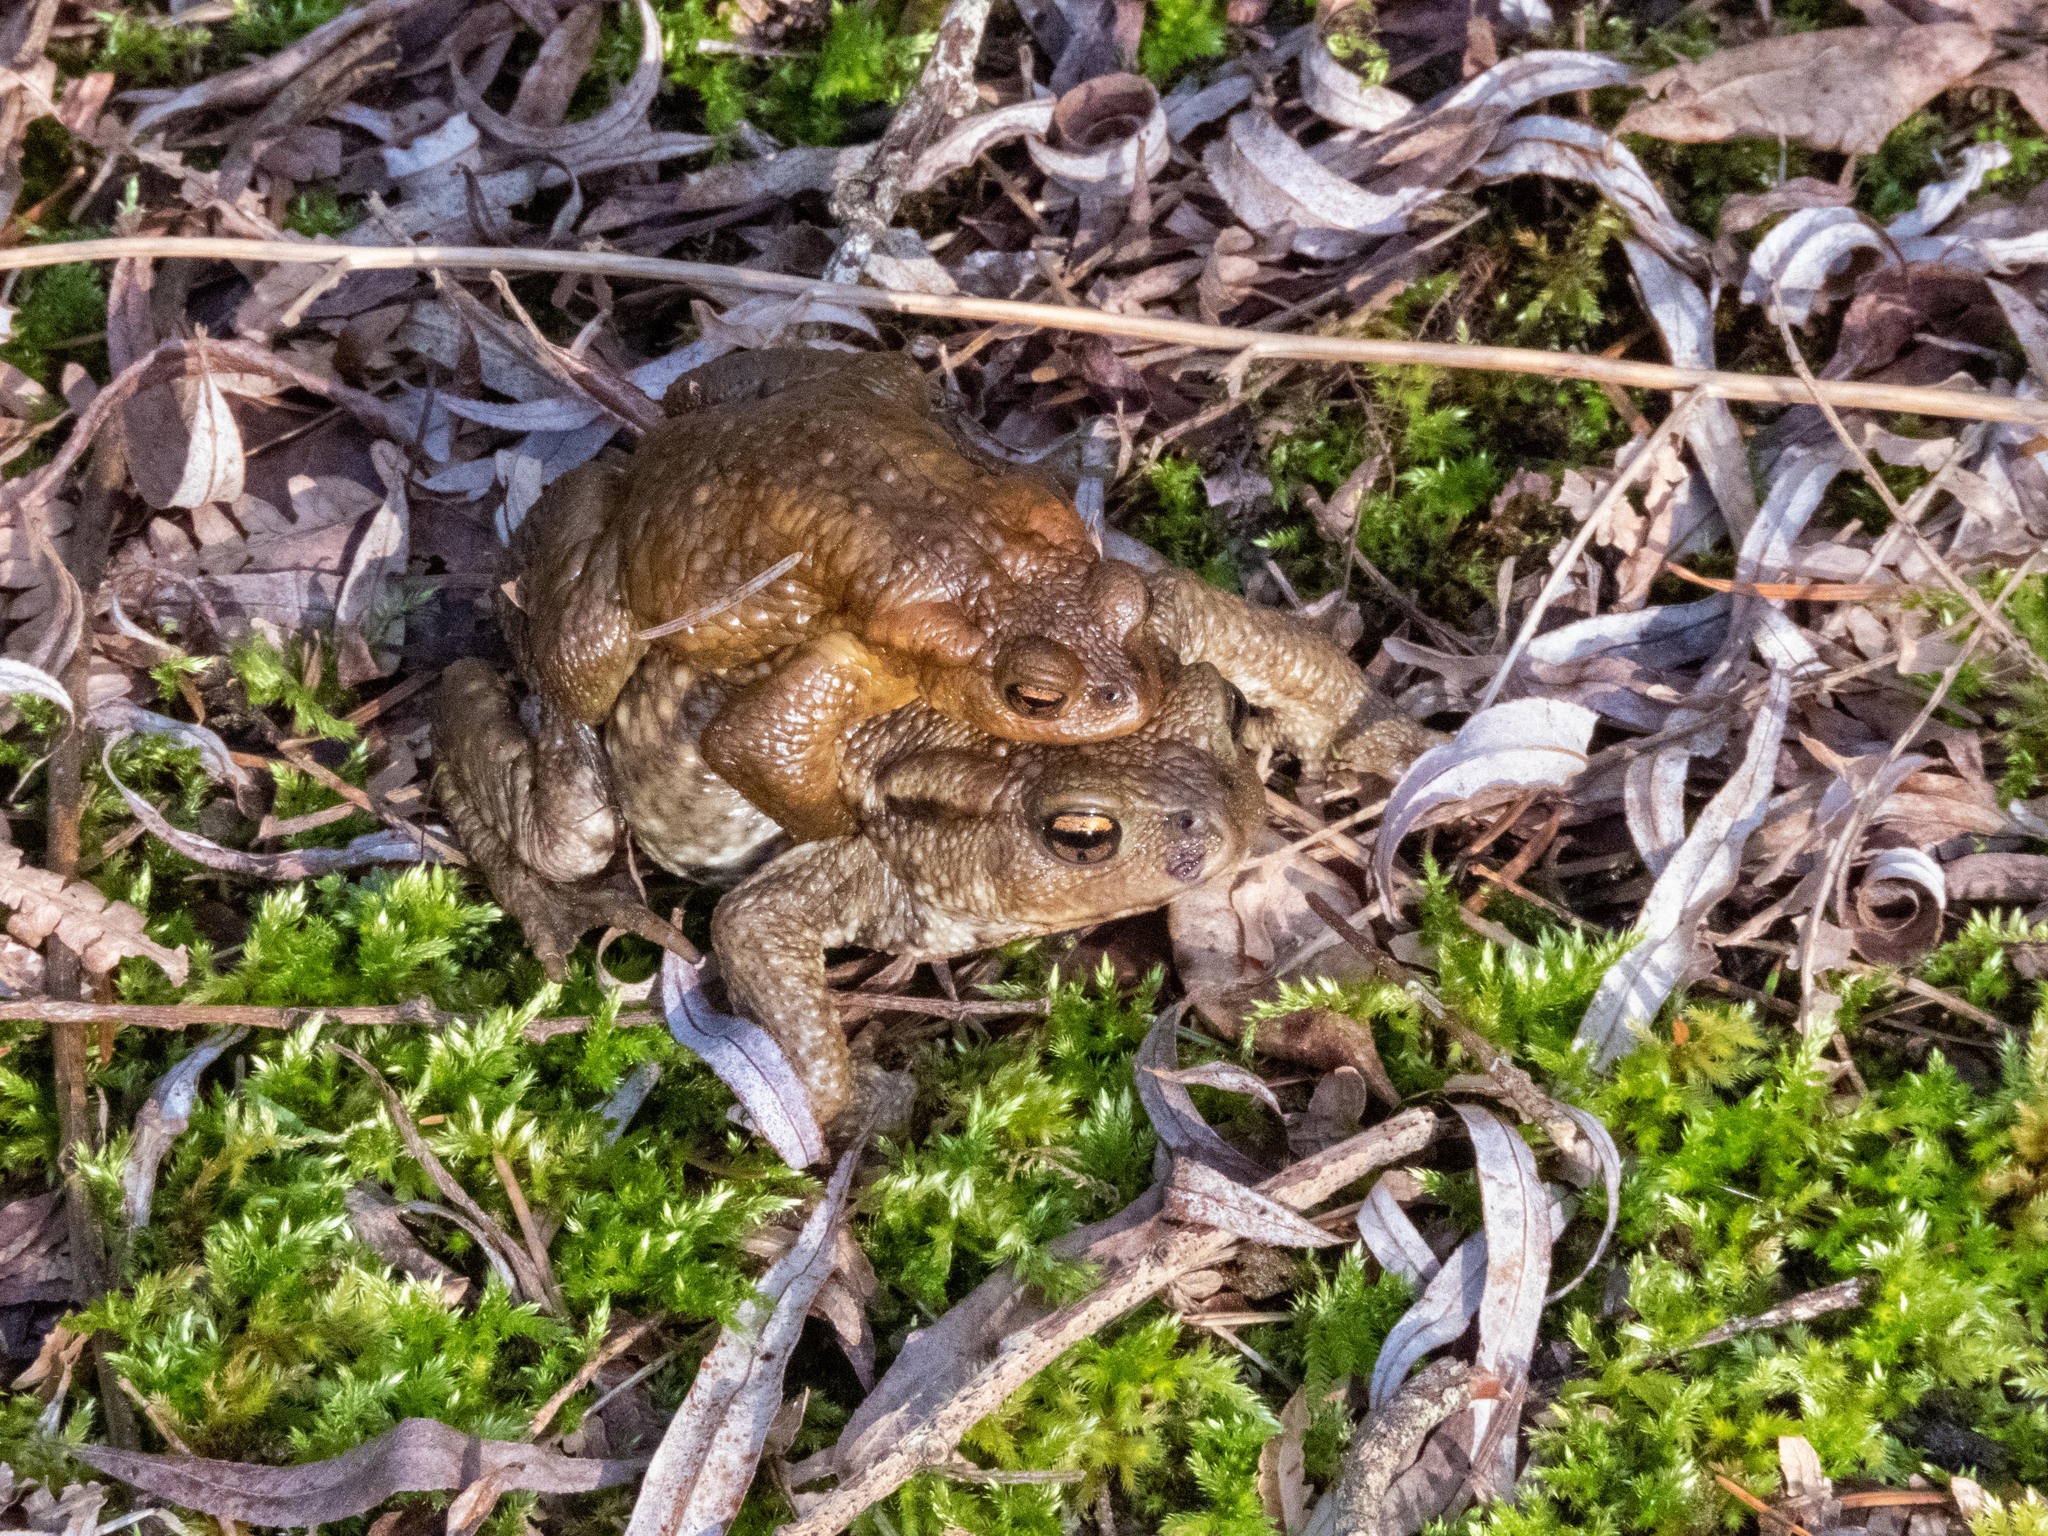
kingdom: Animalia
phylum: Chordata
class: Amphibia
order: Anura
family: Bufonidae
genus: Bufo
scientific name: Bufo spinosus
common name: Western common toad
